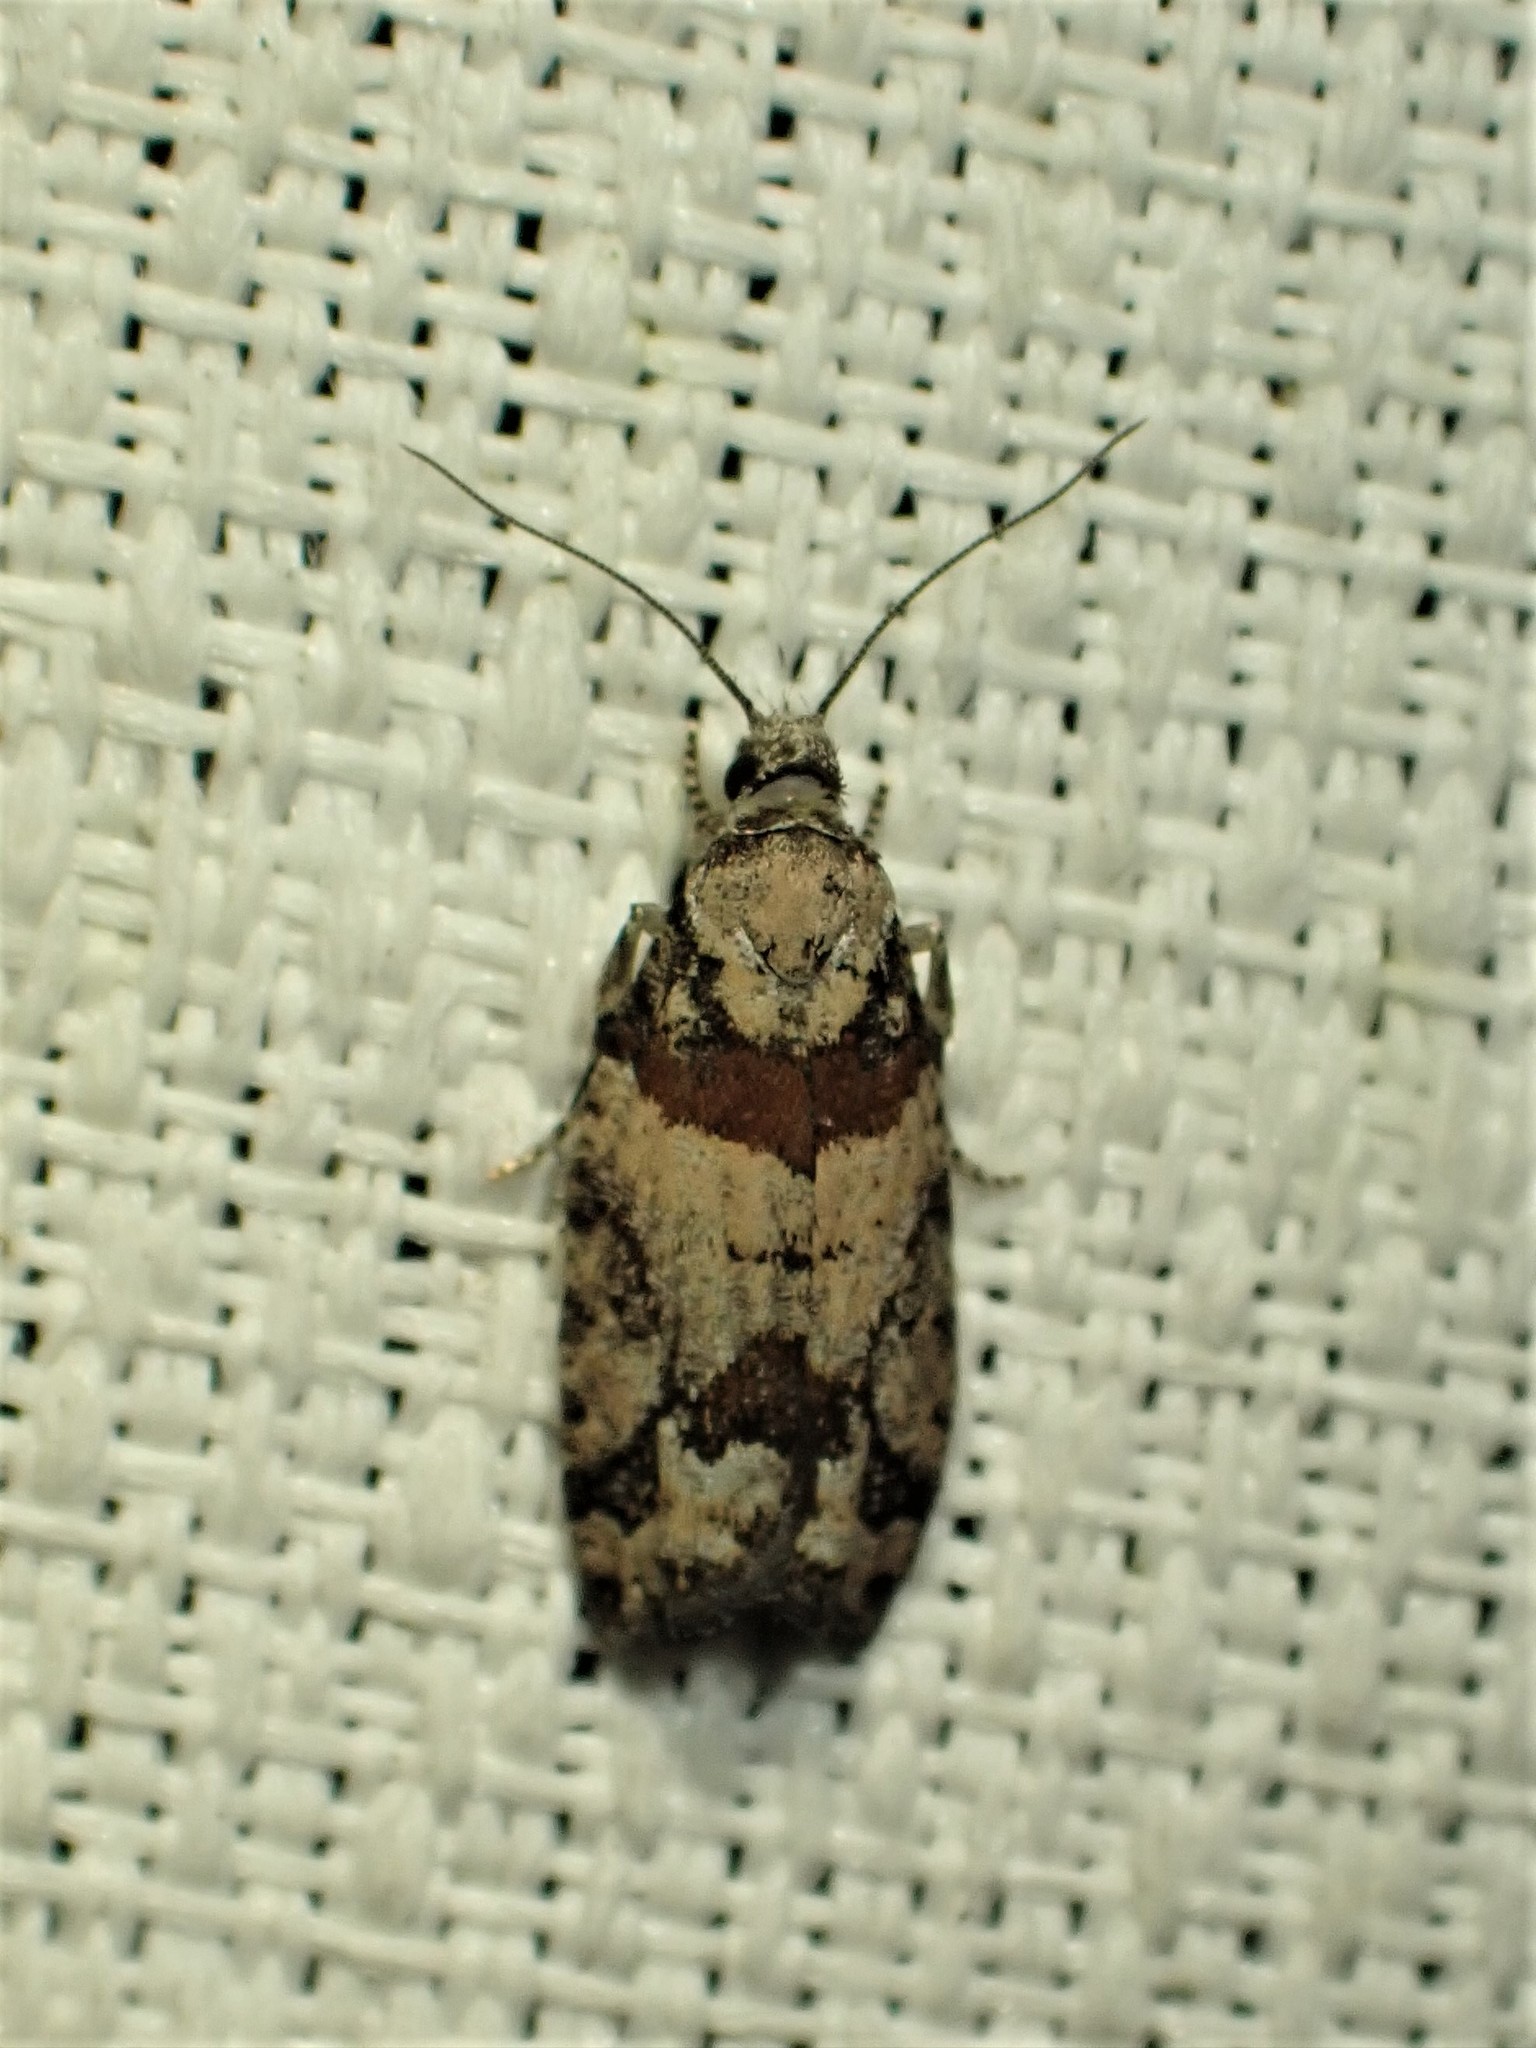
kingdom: Animalia
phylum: Arthropoda
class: Insecta
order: Lepidoptera
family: Tortricidae
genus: Epinotia
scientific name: Epinotia radicana
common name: Red-striped needleworm moth
